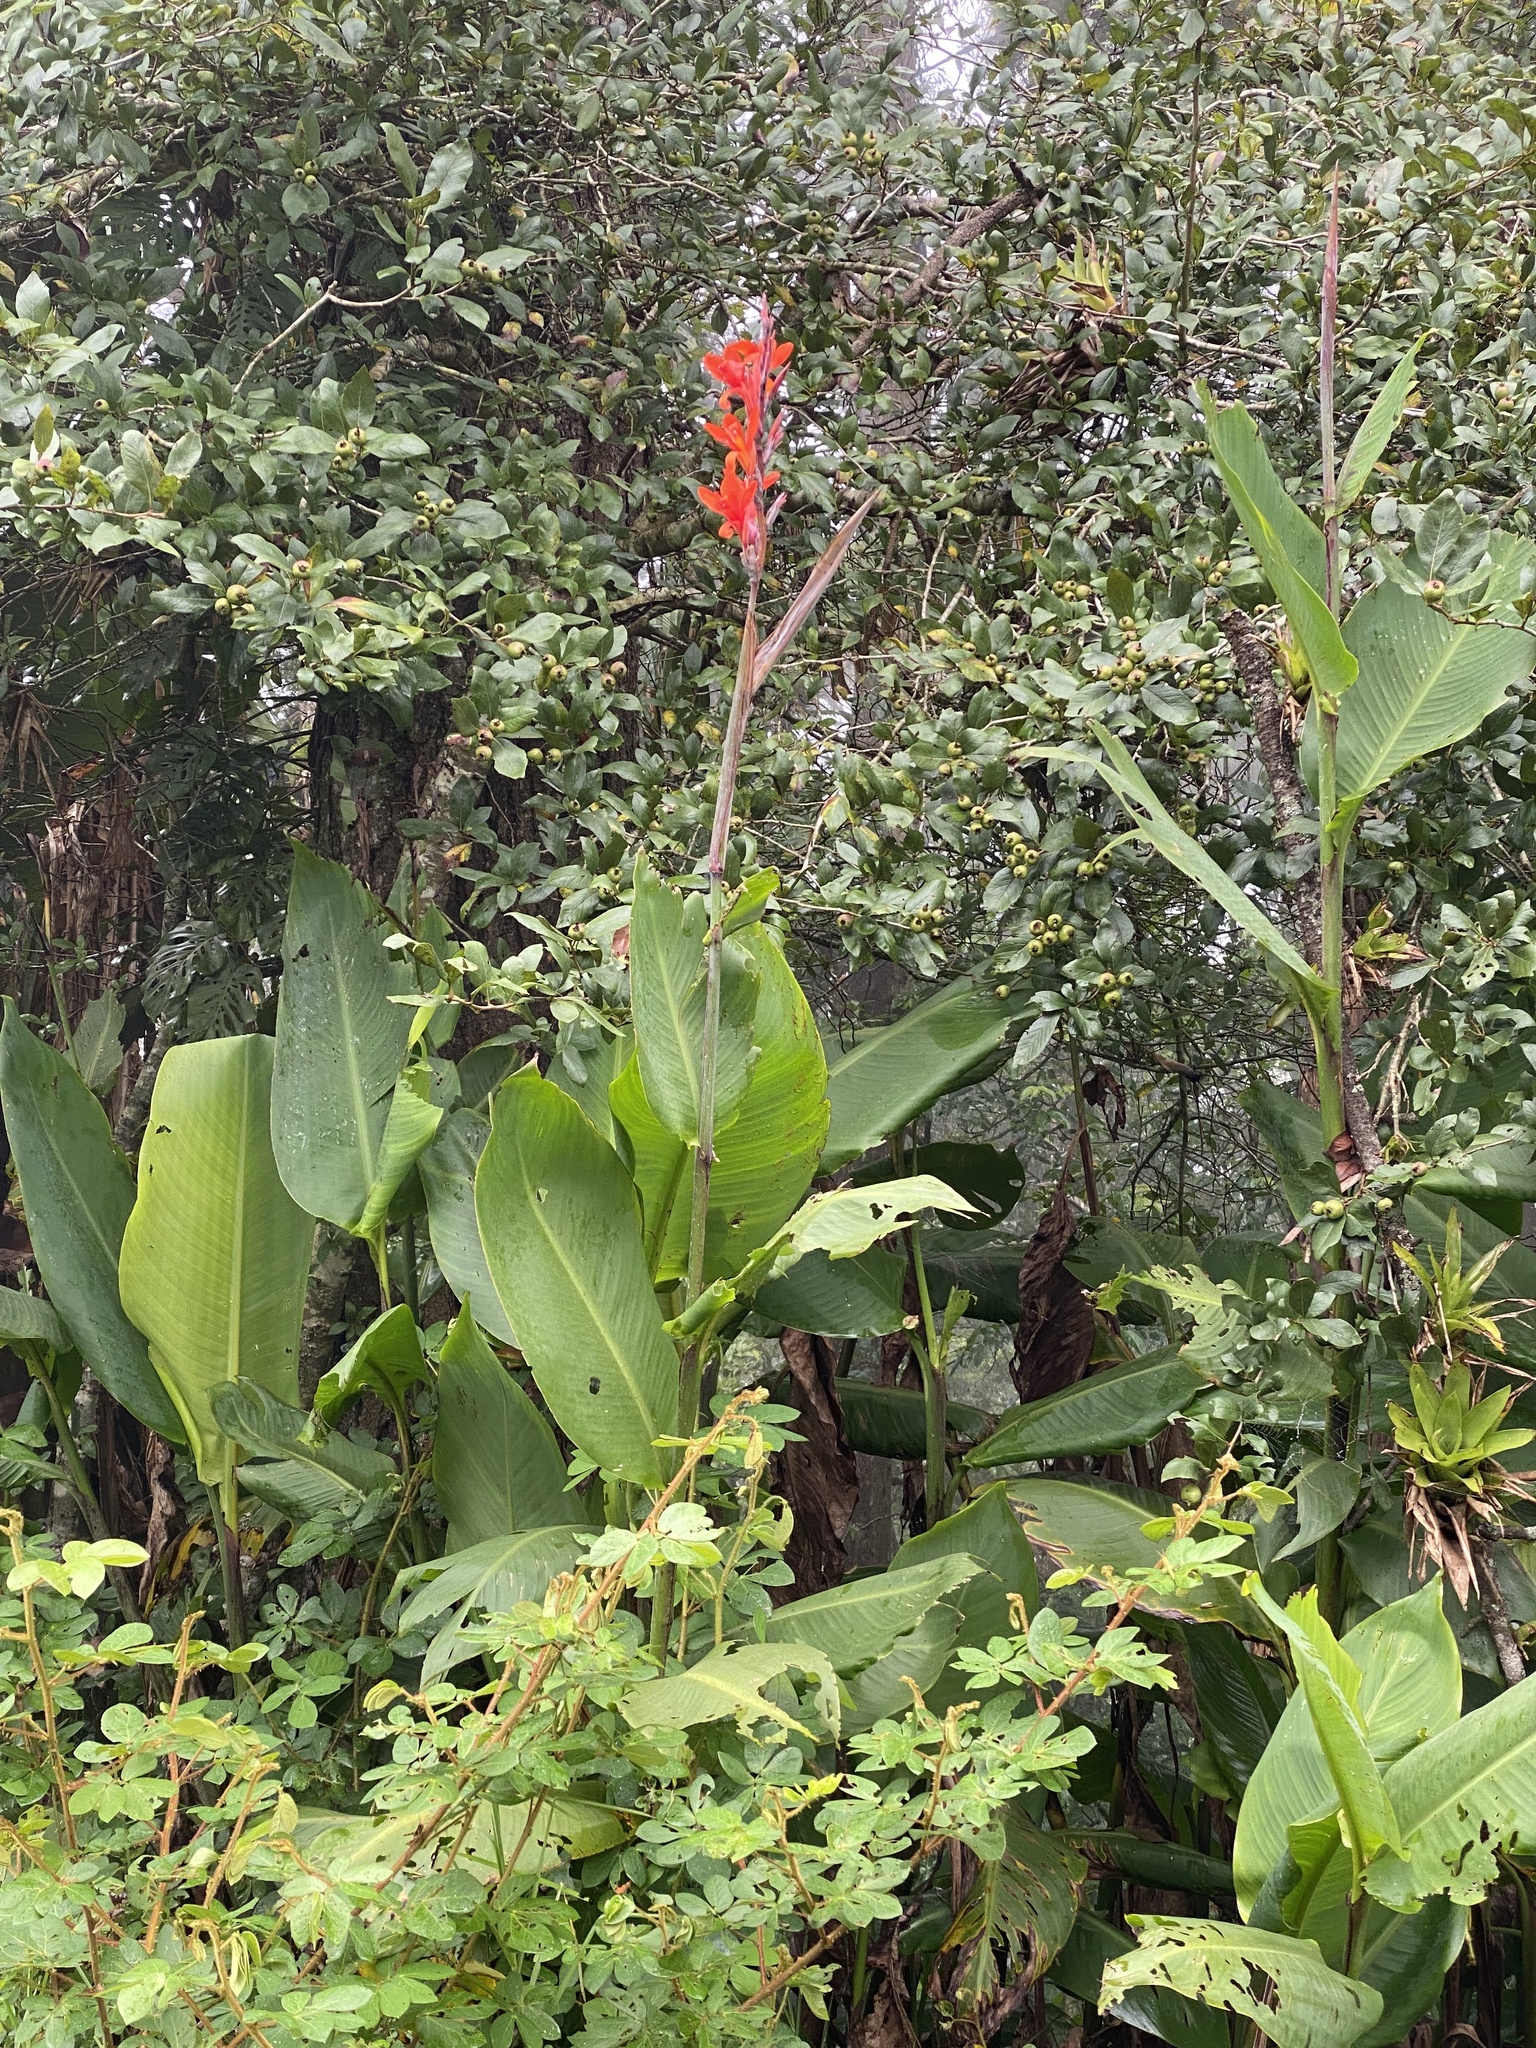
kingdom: Plantae
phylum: Tracheophyta
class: Liliopsida
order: Zingiberales
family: Cannaceae
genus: Canna
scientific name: Canna indica
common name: Indian shot
